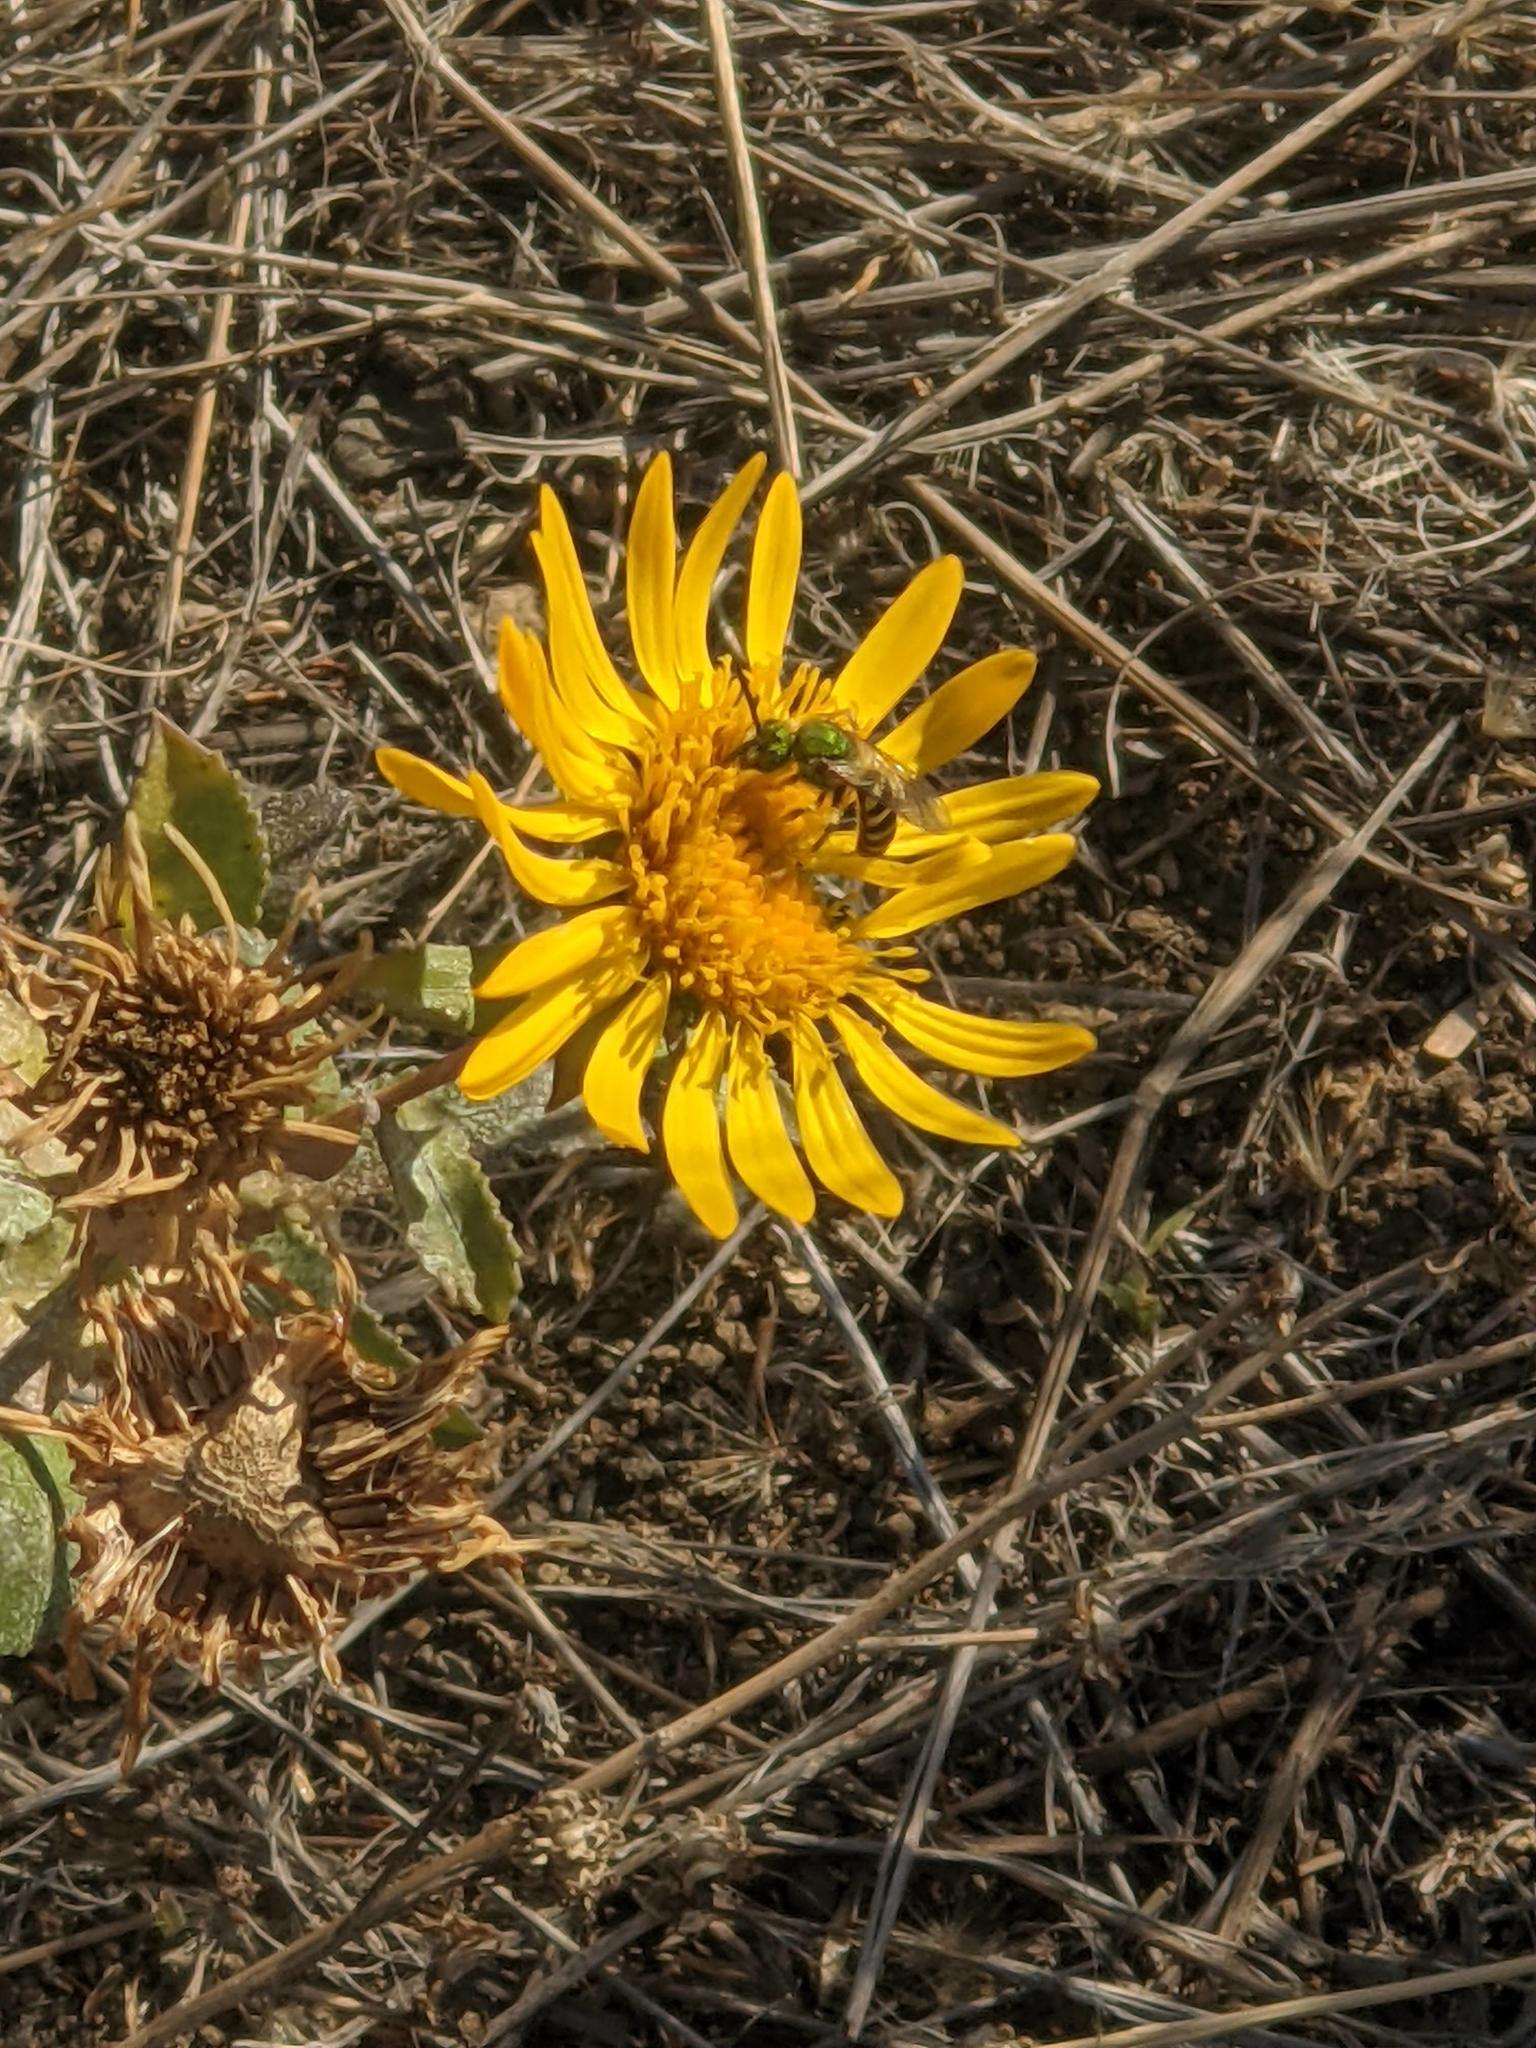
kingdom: Plantae
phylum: Tracheophyta
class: Magnoliopsida
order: Asterales
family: Asteraceae
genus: Grindelia
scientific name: Grindelia squarrosa
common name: Curly-cup gumweed
